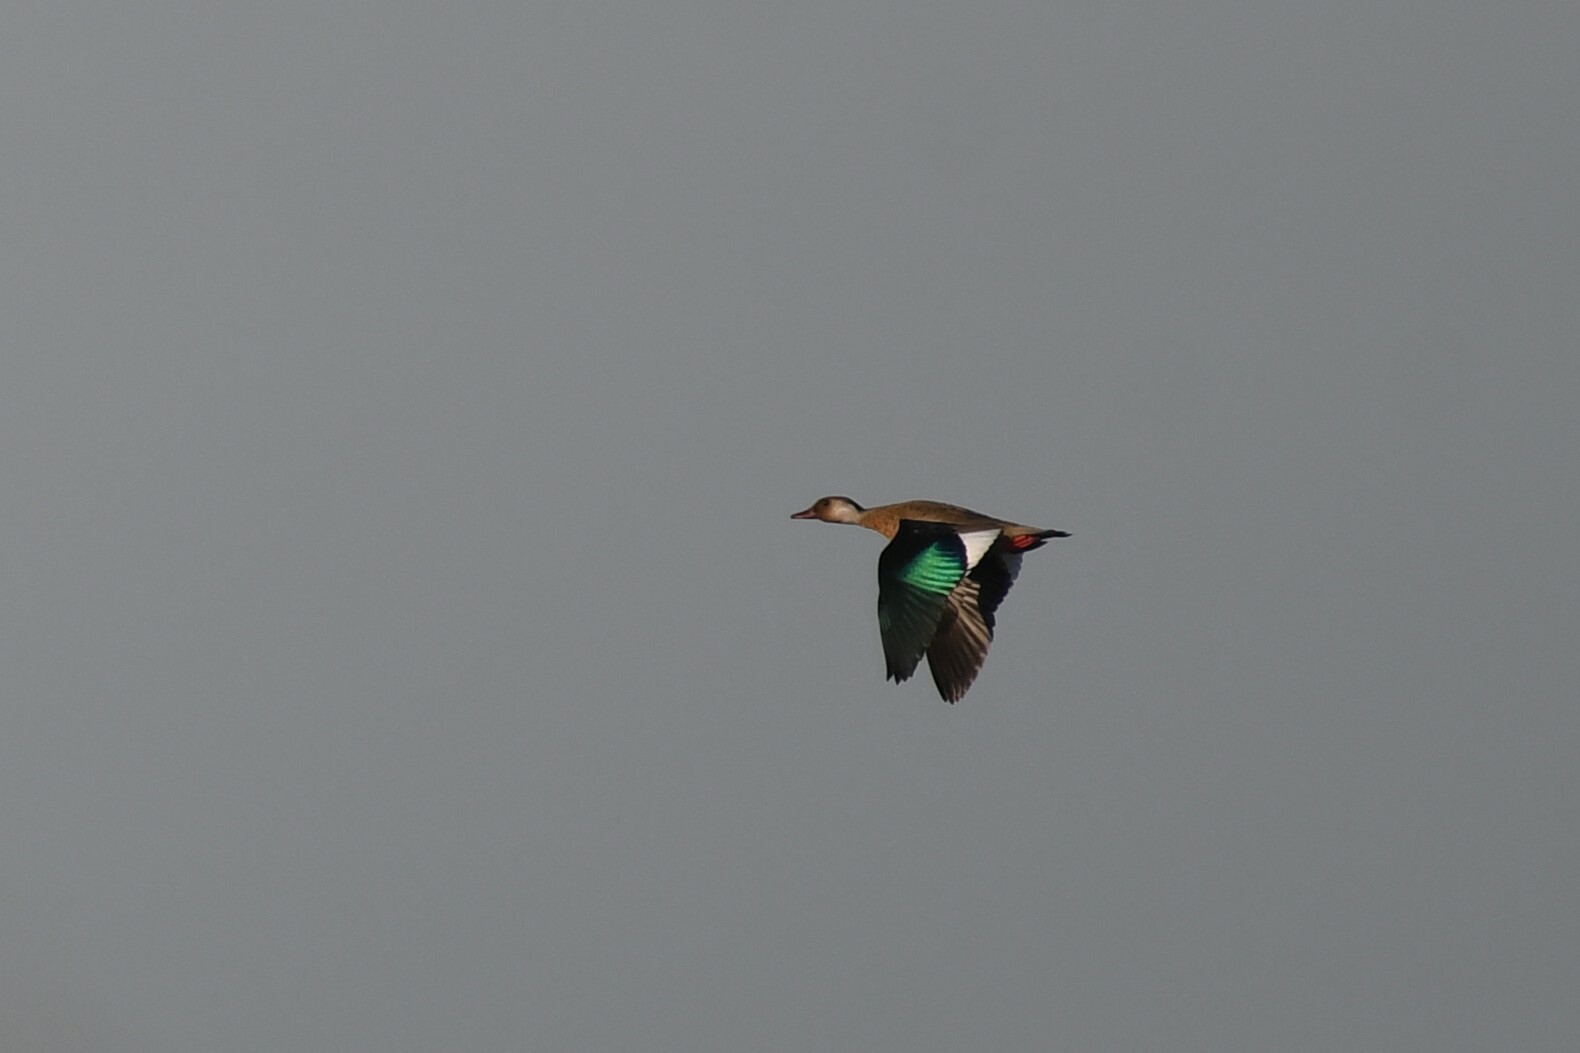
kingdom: Animalia
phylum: Chordata
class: Aves
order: Anseriformes
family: Anatidae
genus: Amazonetta
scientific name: Amazonetta brasiliensis
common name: Brazilian teal
